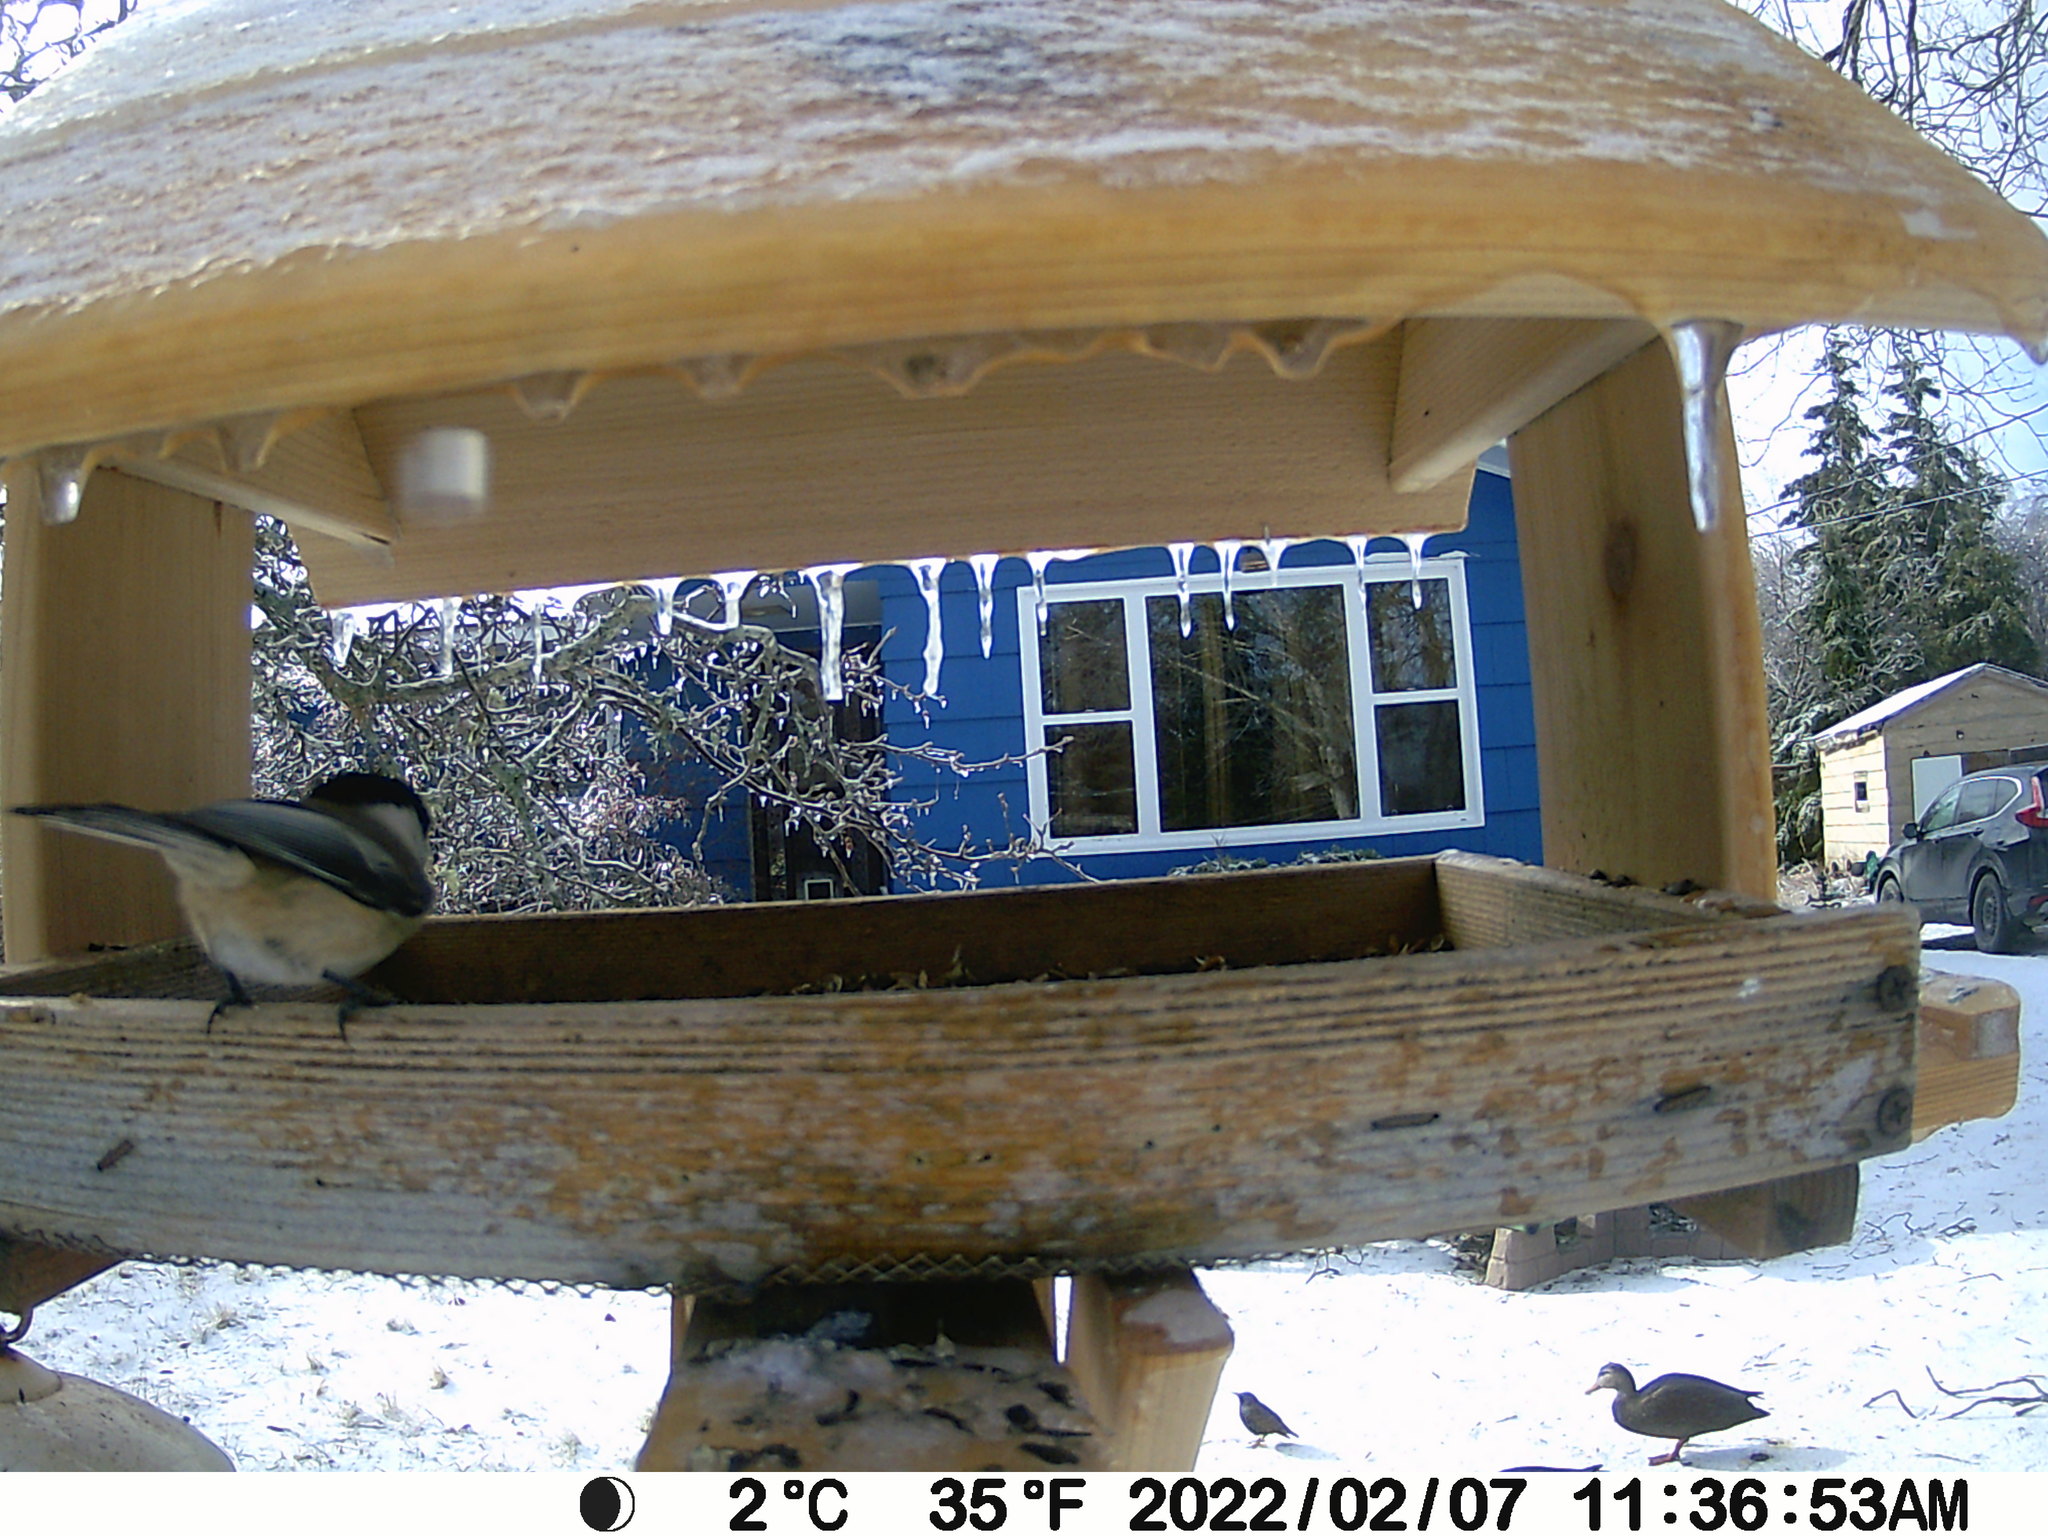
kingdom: Animalia
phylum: Chordata
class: Aves
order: Anseriformes
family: Anatidae
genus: Anas
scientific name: Anas rubripes
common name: American black duck
